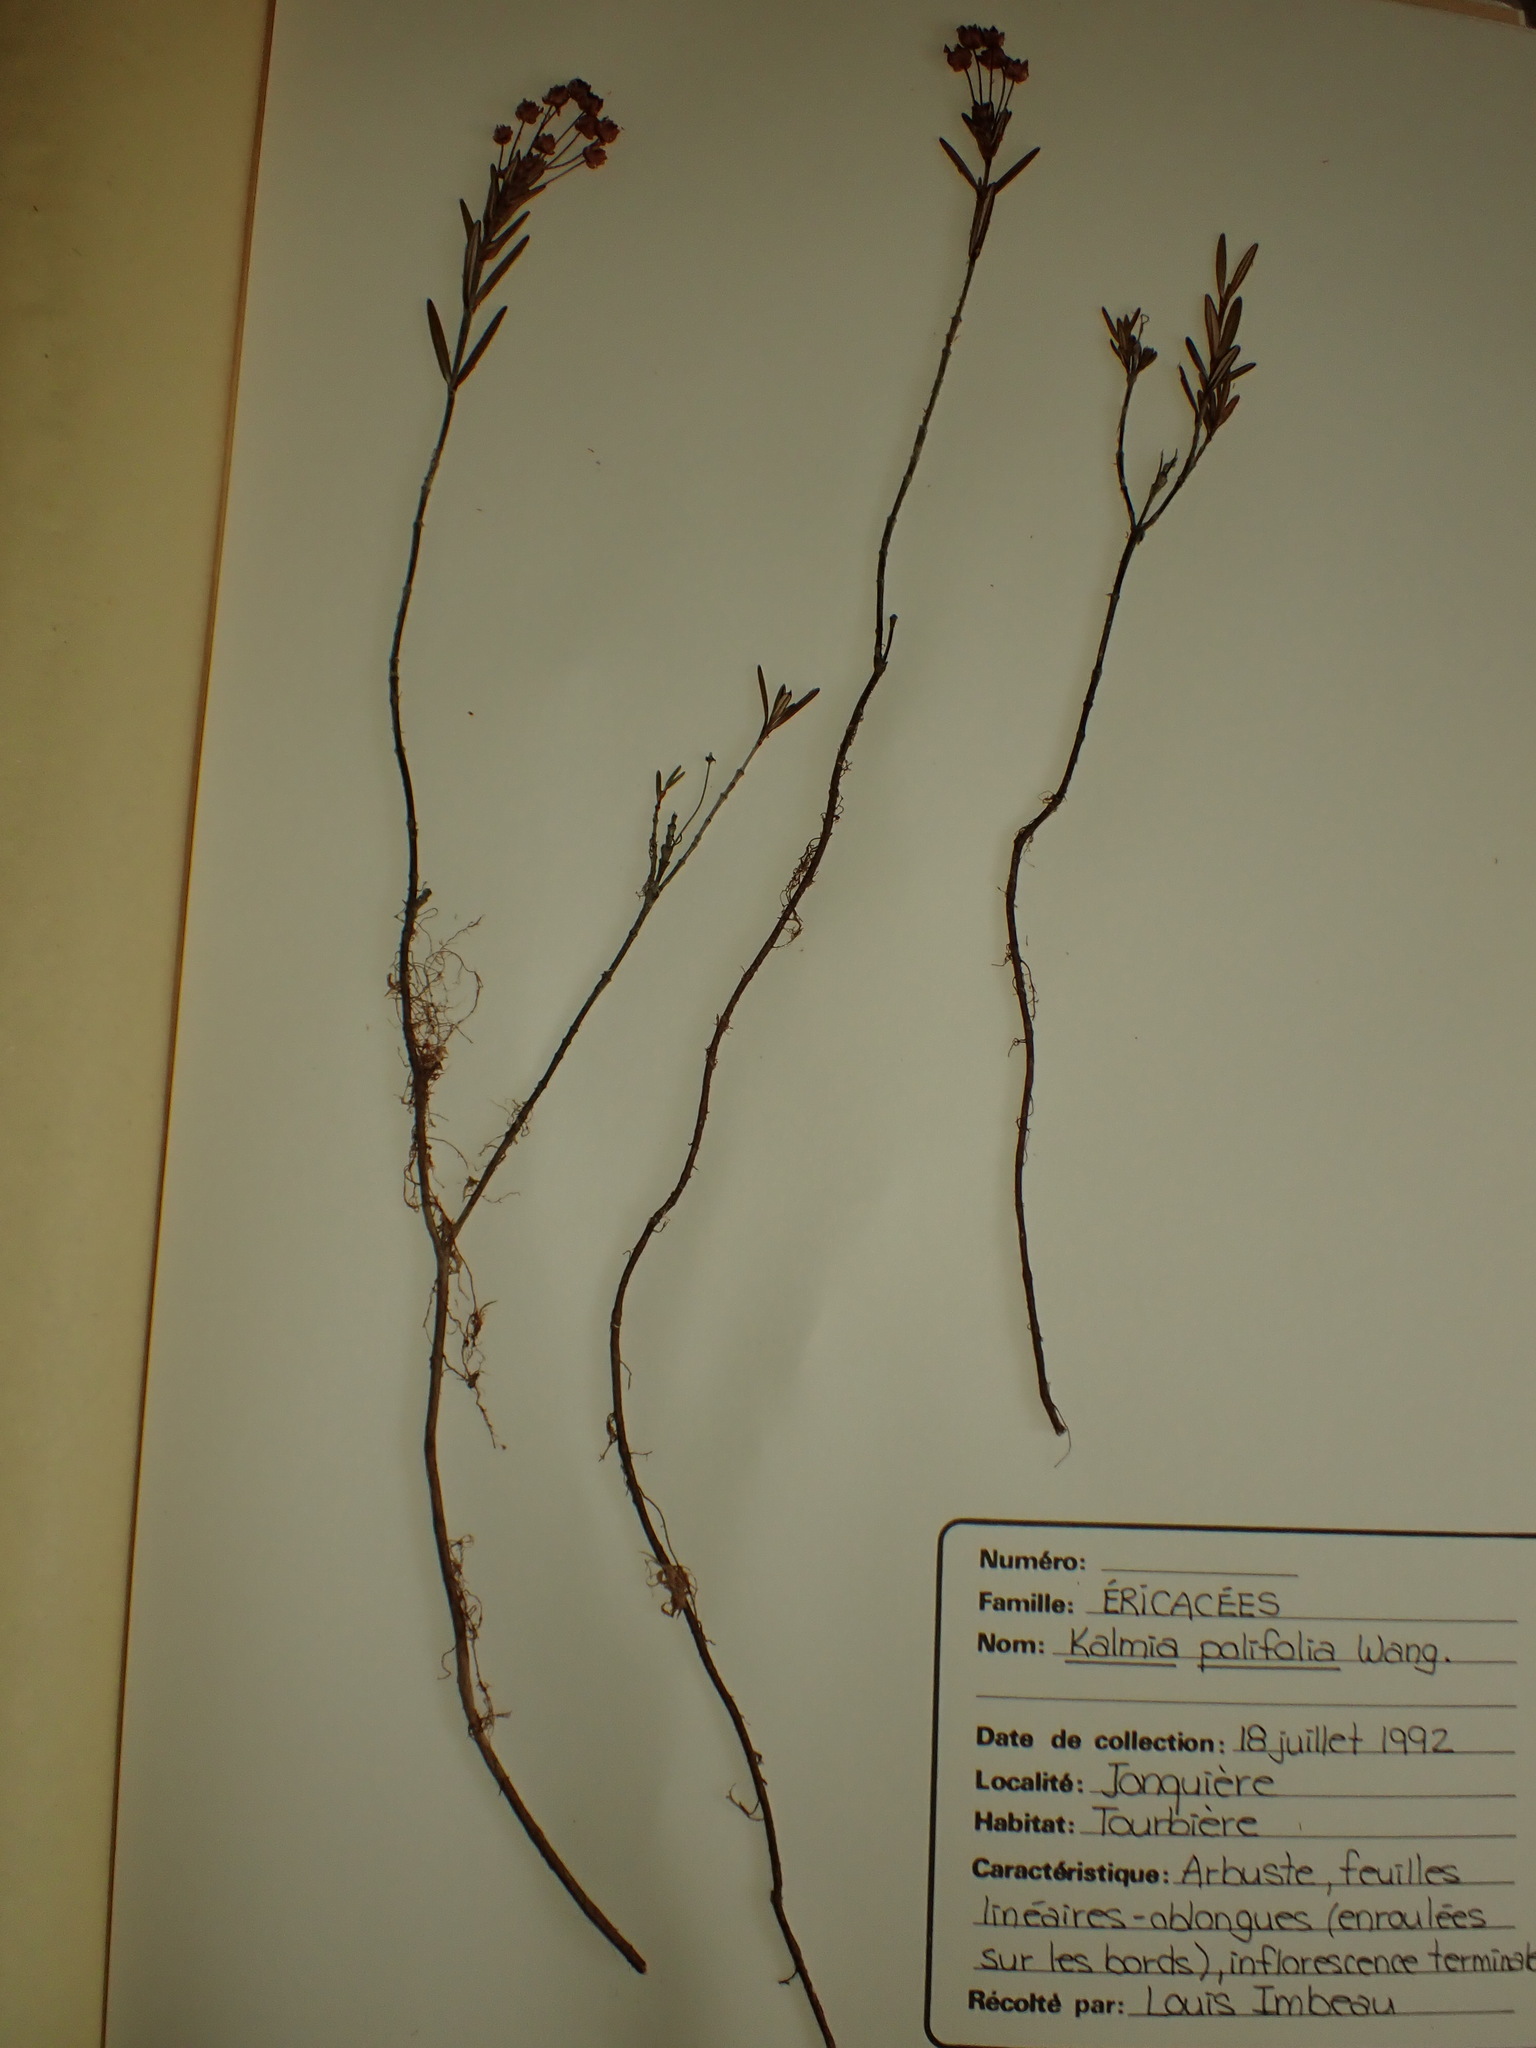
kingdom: Plantae
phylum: Tracheophyta
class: Magnoliopsida
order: Ericales
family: Ericaceae
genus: Kalmia
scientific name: Kalmia polifolia
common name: Bog-laurel
